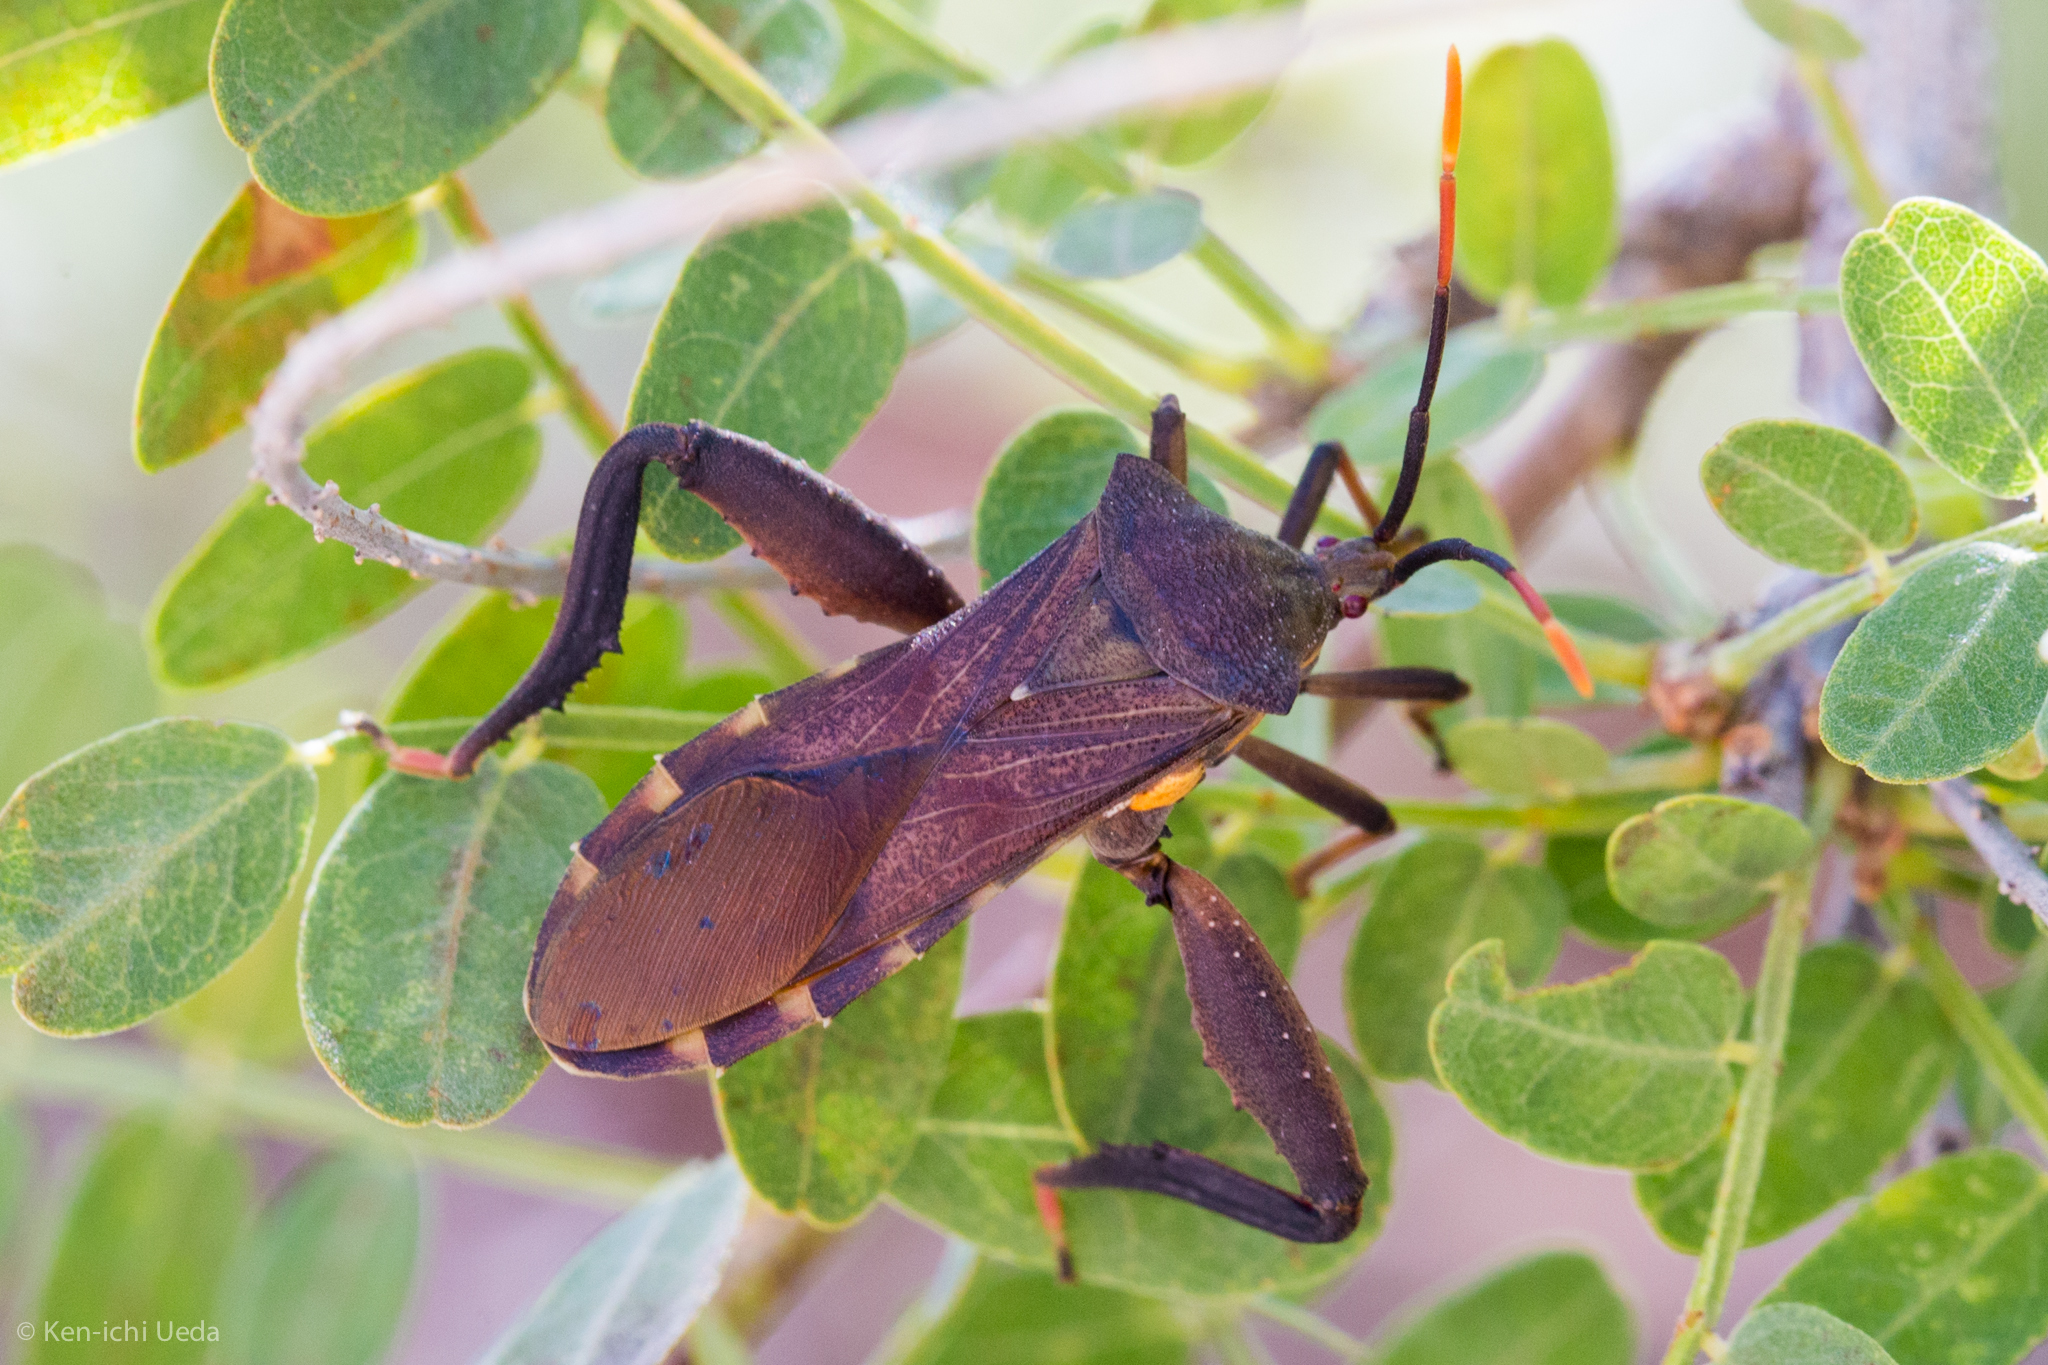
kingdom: Animalia
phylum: Arthropoda
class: Insecta
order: Hemiptera
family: Coreidae
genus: Mozena
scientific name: Mozena pallisteri
